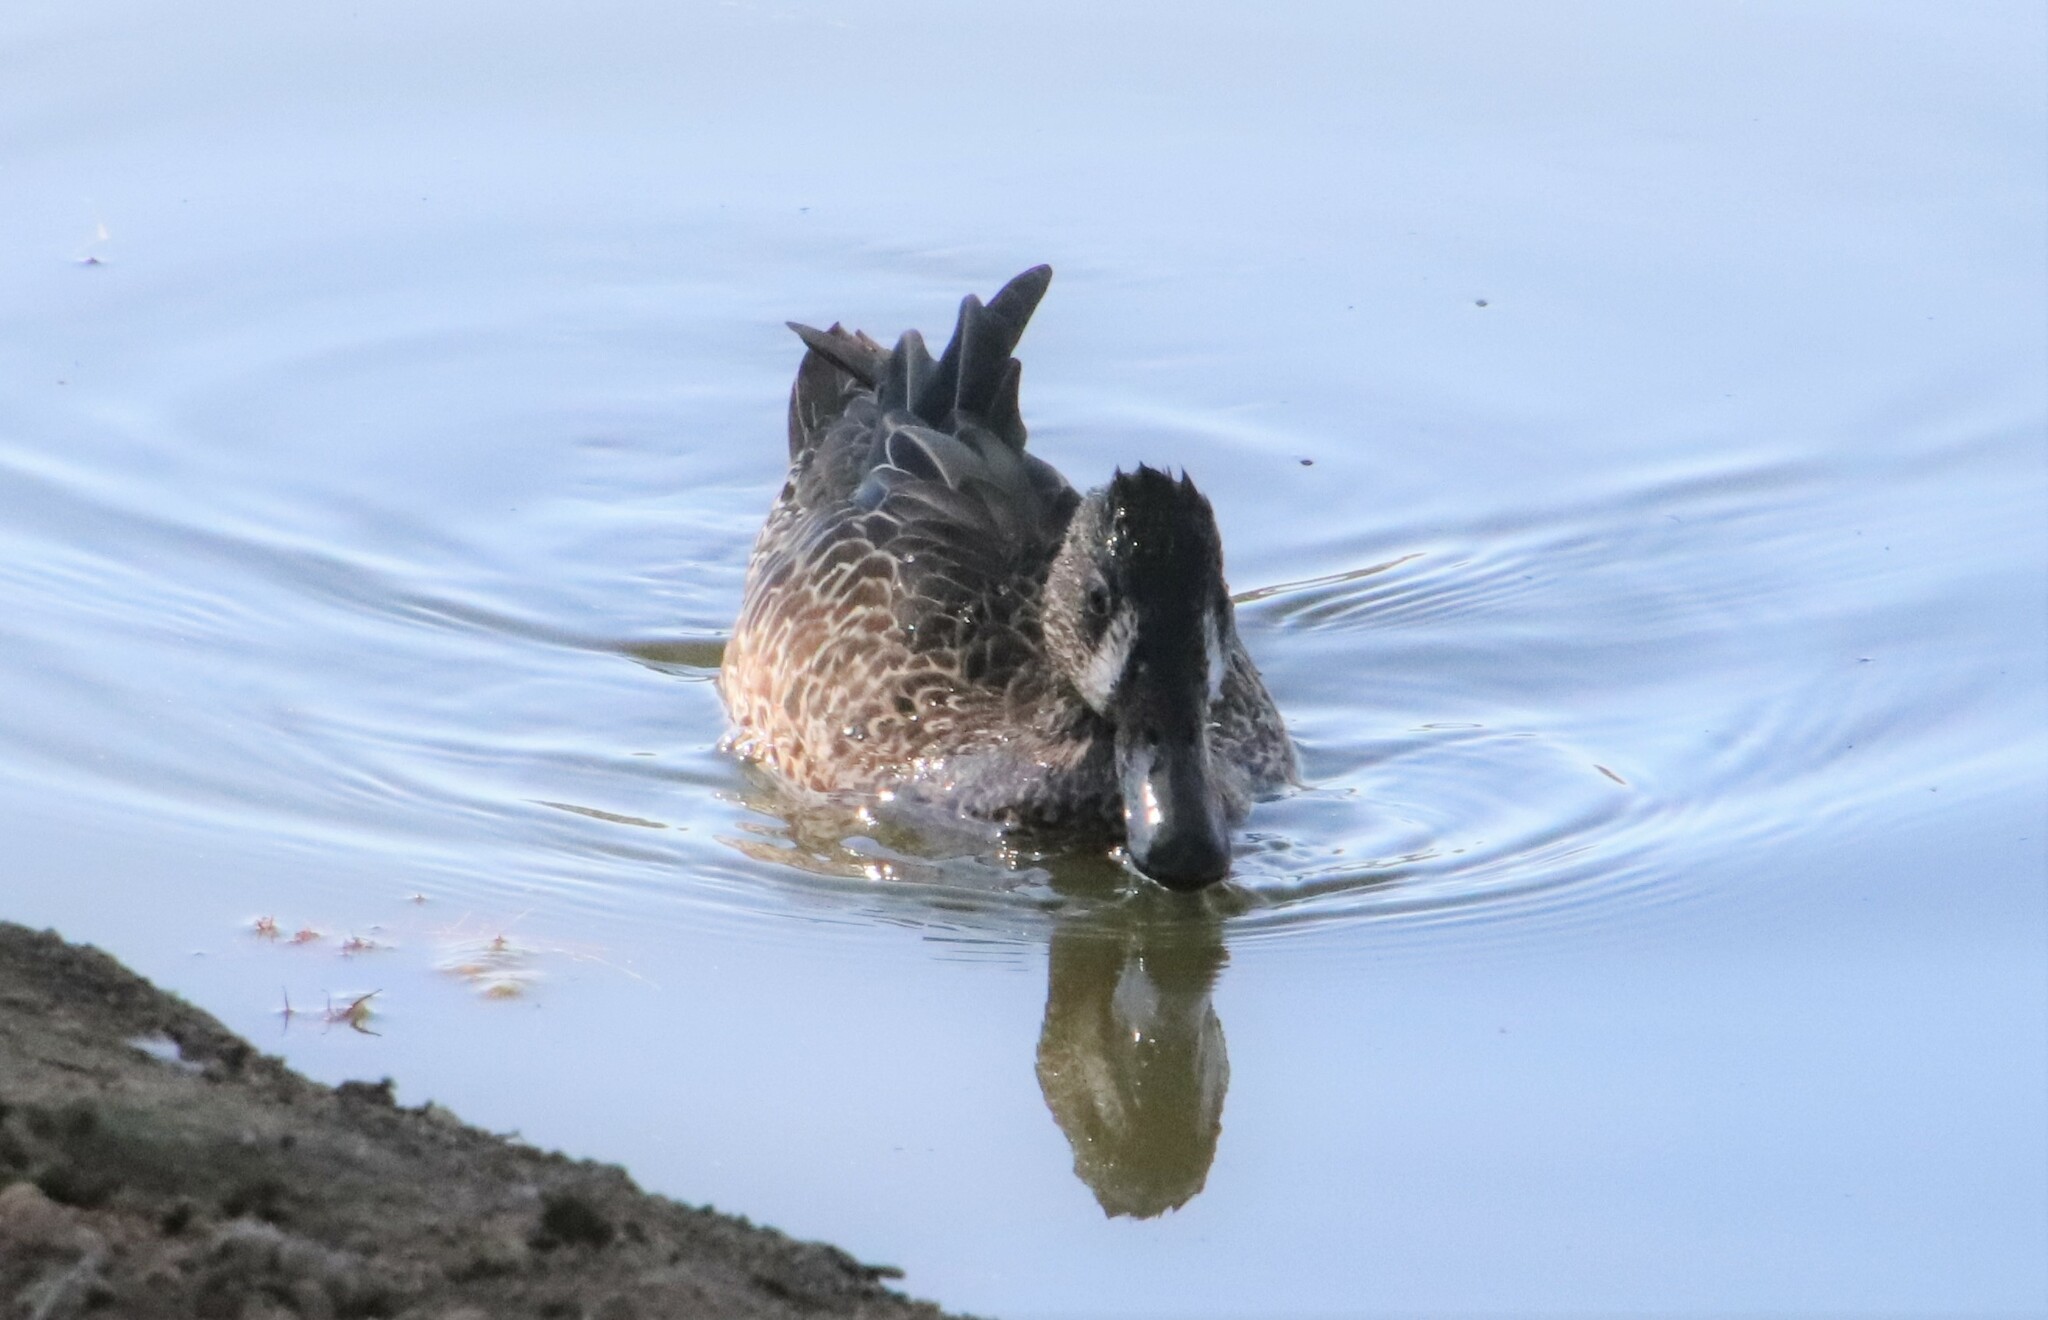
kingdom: Animalia
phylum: Chordata
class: Aves
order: Anseriformes
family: Anatidae
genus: Spatula
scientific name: Spatula discors
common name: Blue-winged teal
